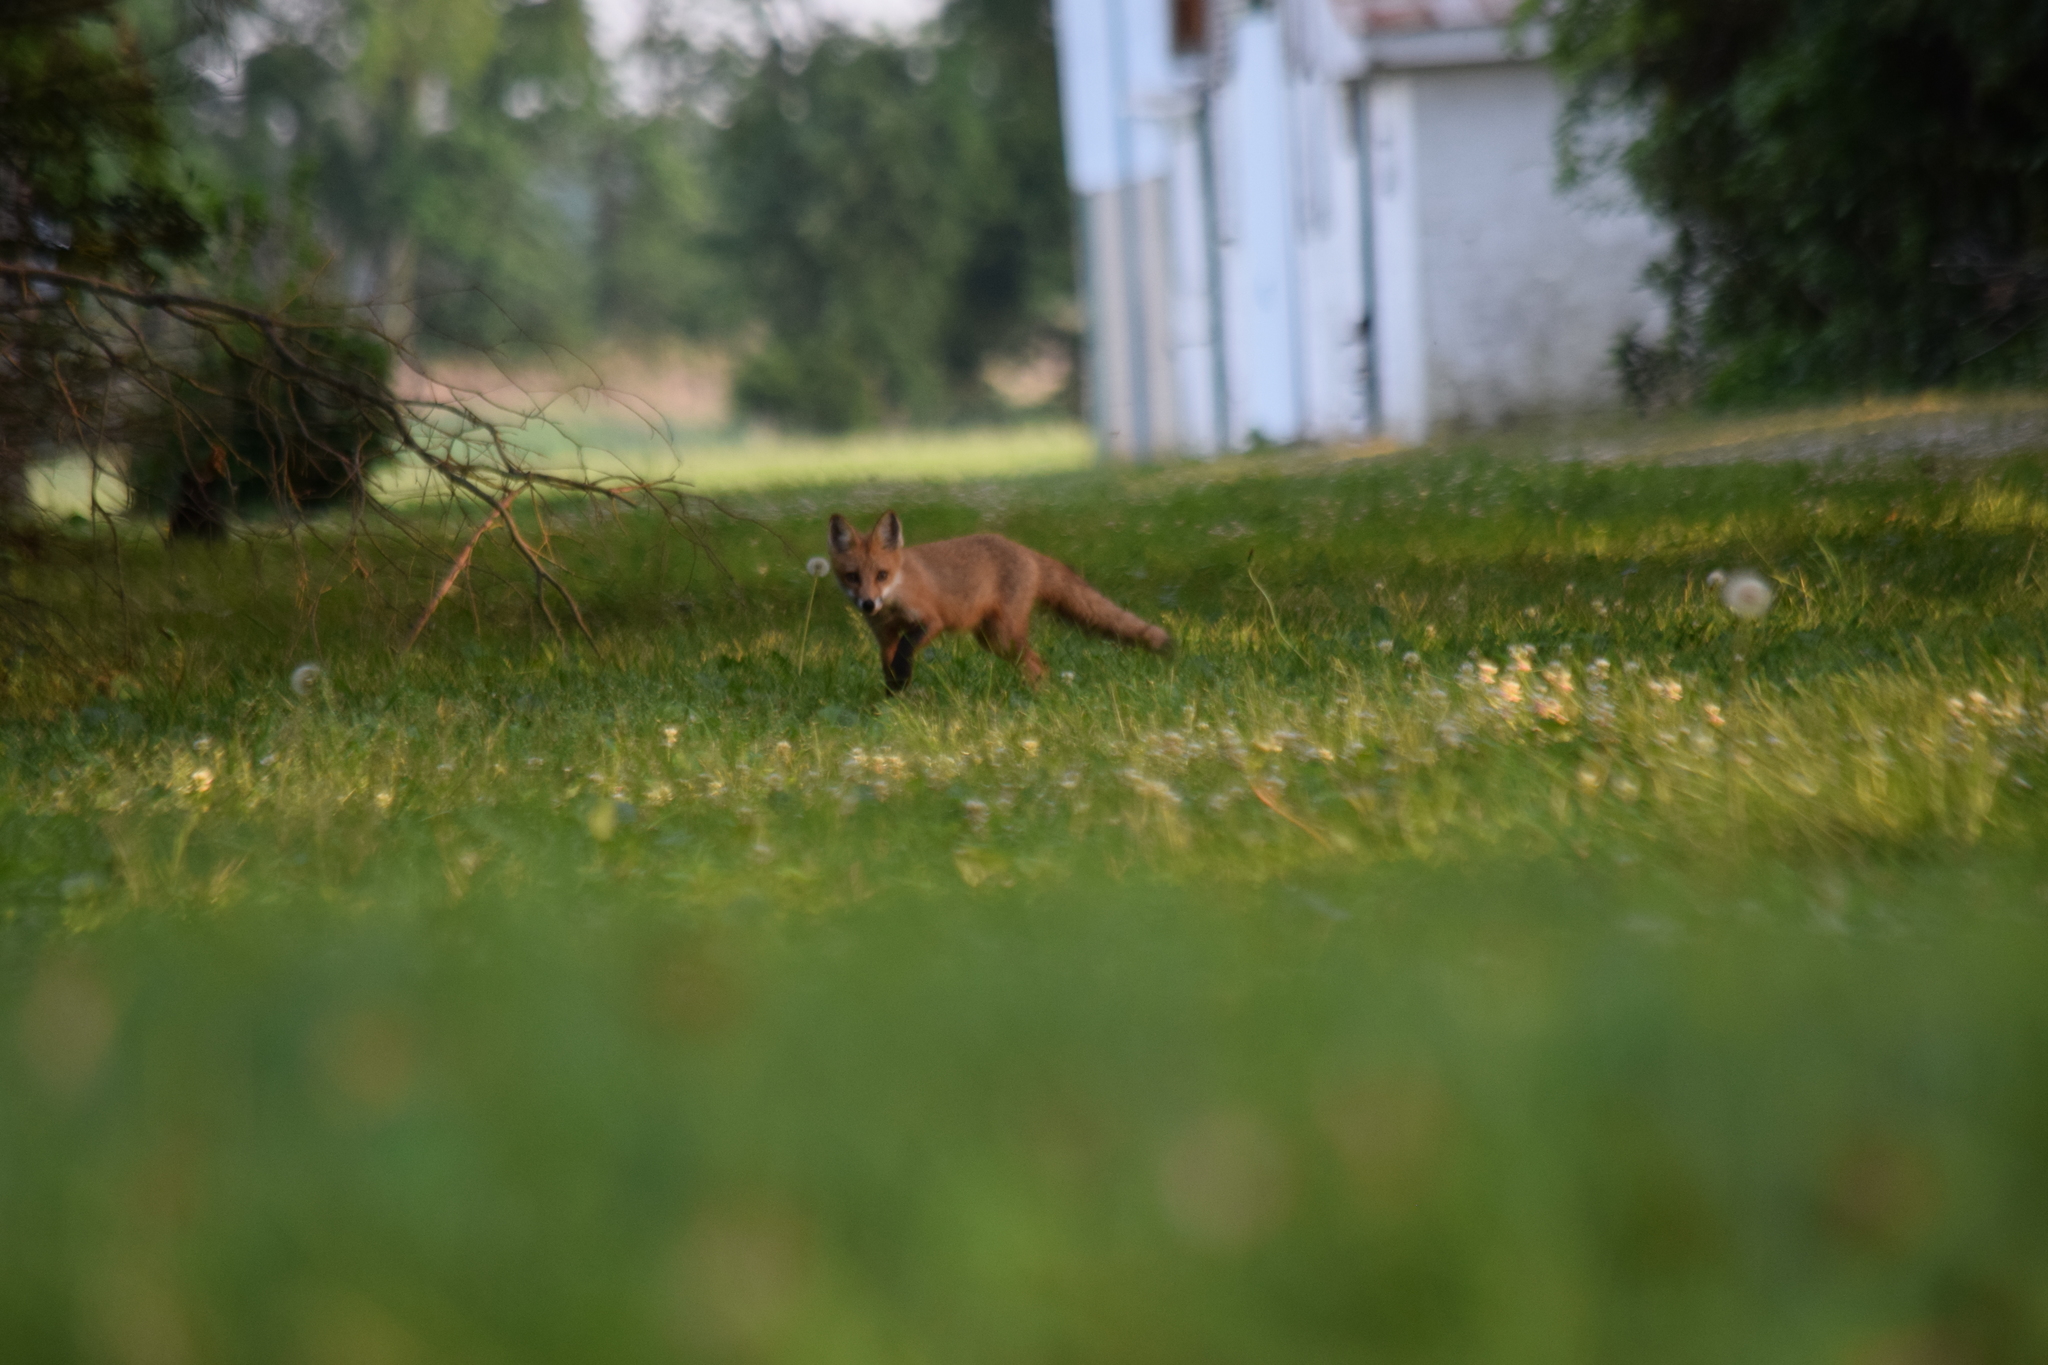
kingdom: Animalia
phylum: Chordata
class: Mammalia
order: Carnivora
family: Canidae
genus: Vulpes
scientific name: Vulpes vulpes
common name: Red fox
